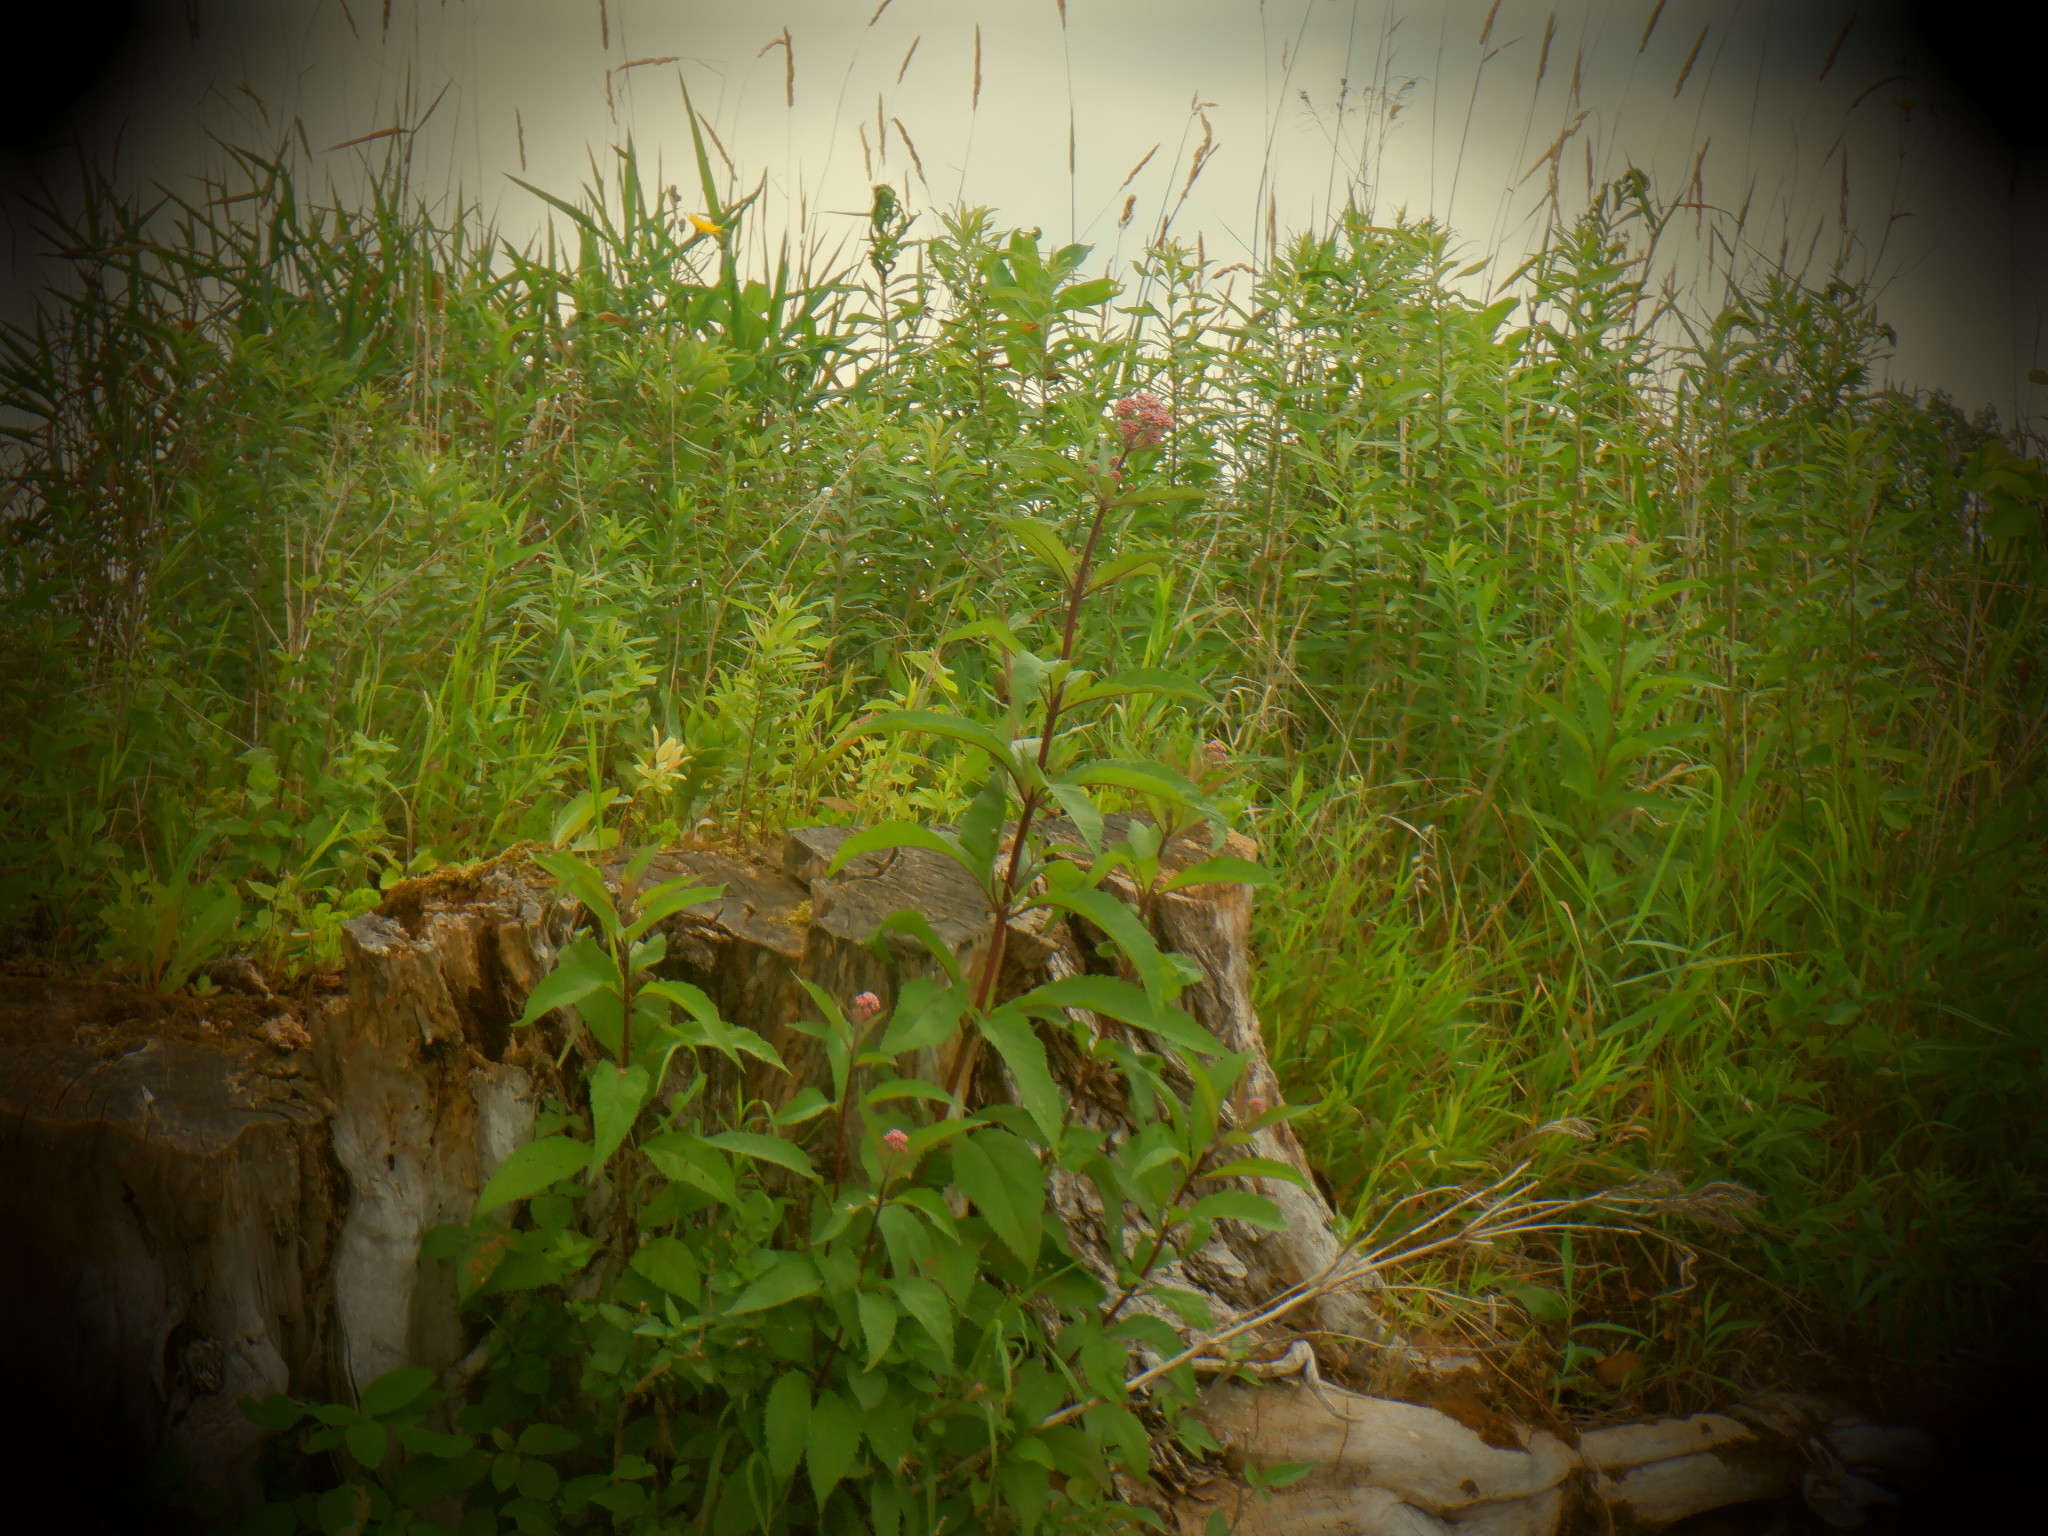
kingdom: Plantae
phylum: Tracheophyta
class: Magnoliopsida
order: Asterales
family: Asteraceae
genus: Eutrochium
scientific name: Eutrochium maculatum
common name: Spotted joe pye weed
